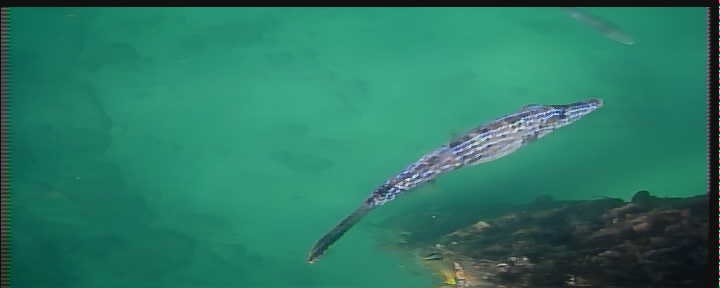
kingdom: Animalia
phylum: Chordata
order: Tetraodontiformes
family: Monacanthidae
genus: Aluterus
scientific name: Aluterus scriptus
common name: Scribbled leatherjacket filefish
